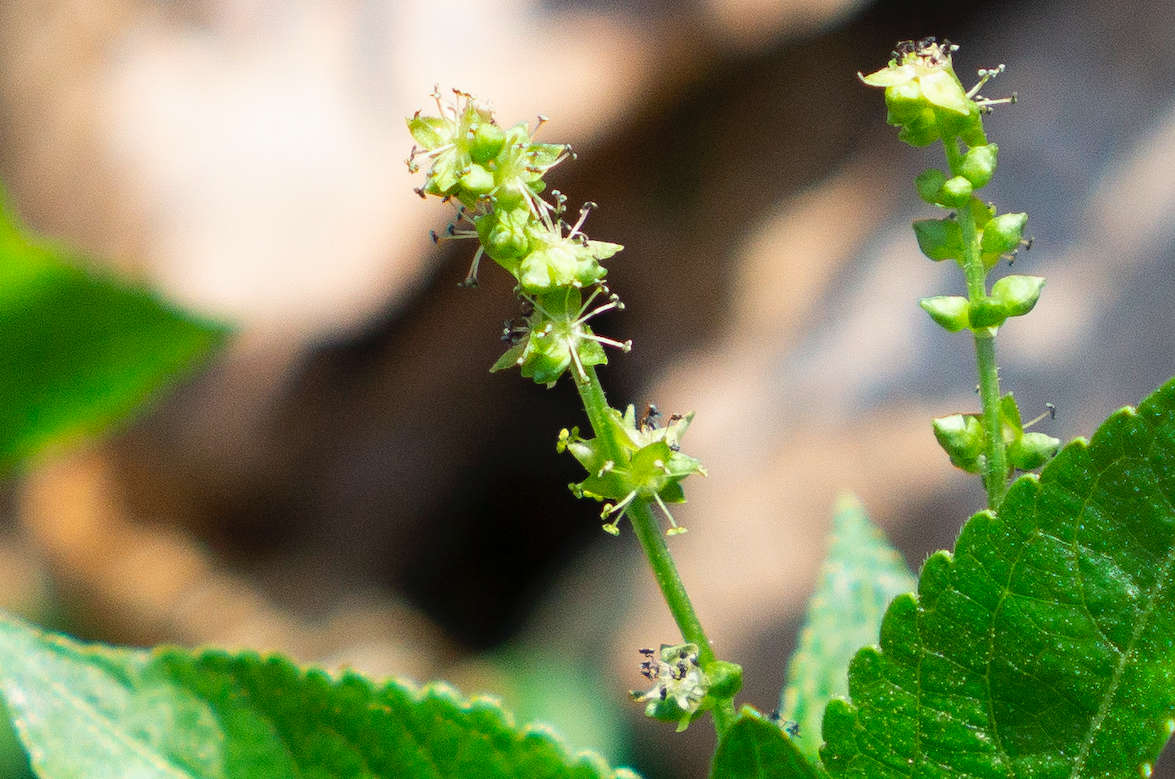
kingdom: Plantae
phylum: Tracheophyta
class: Magnoliopsida
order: Malpighiales
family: Euphorbiaceae
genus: Mercurialis
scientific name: Mercurialis perennis
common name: Dog mercury
